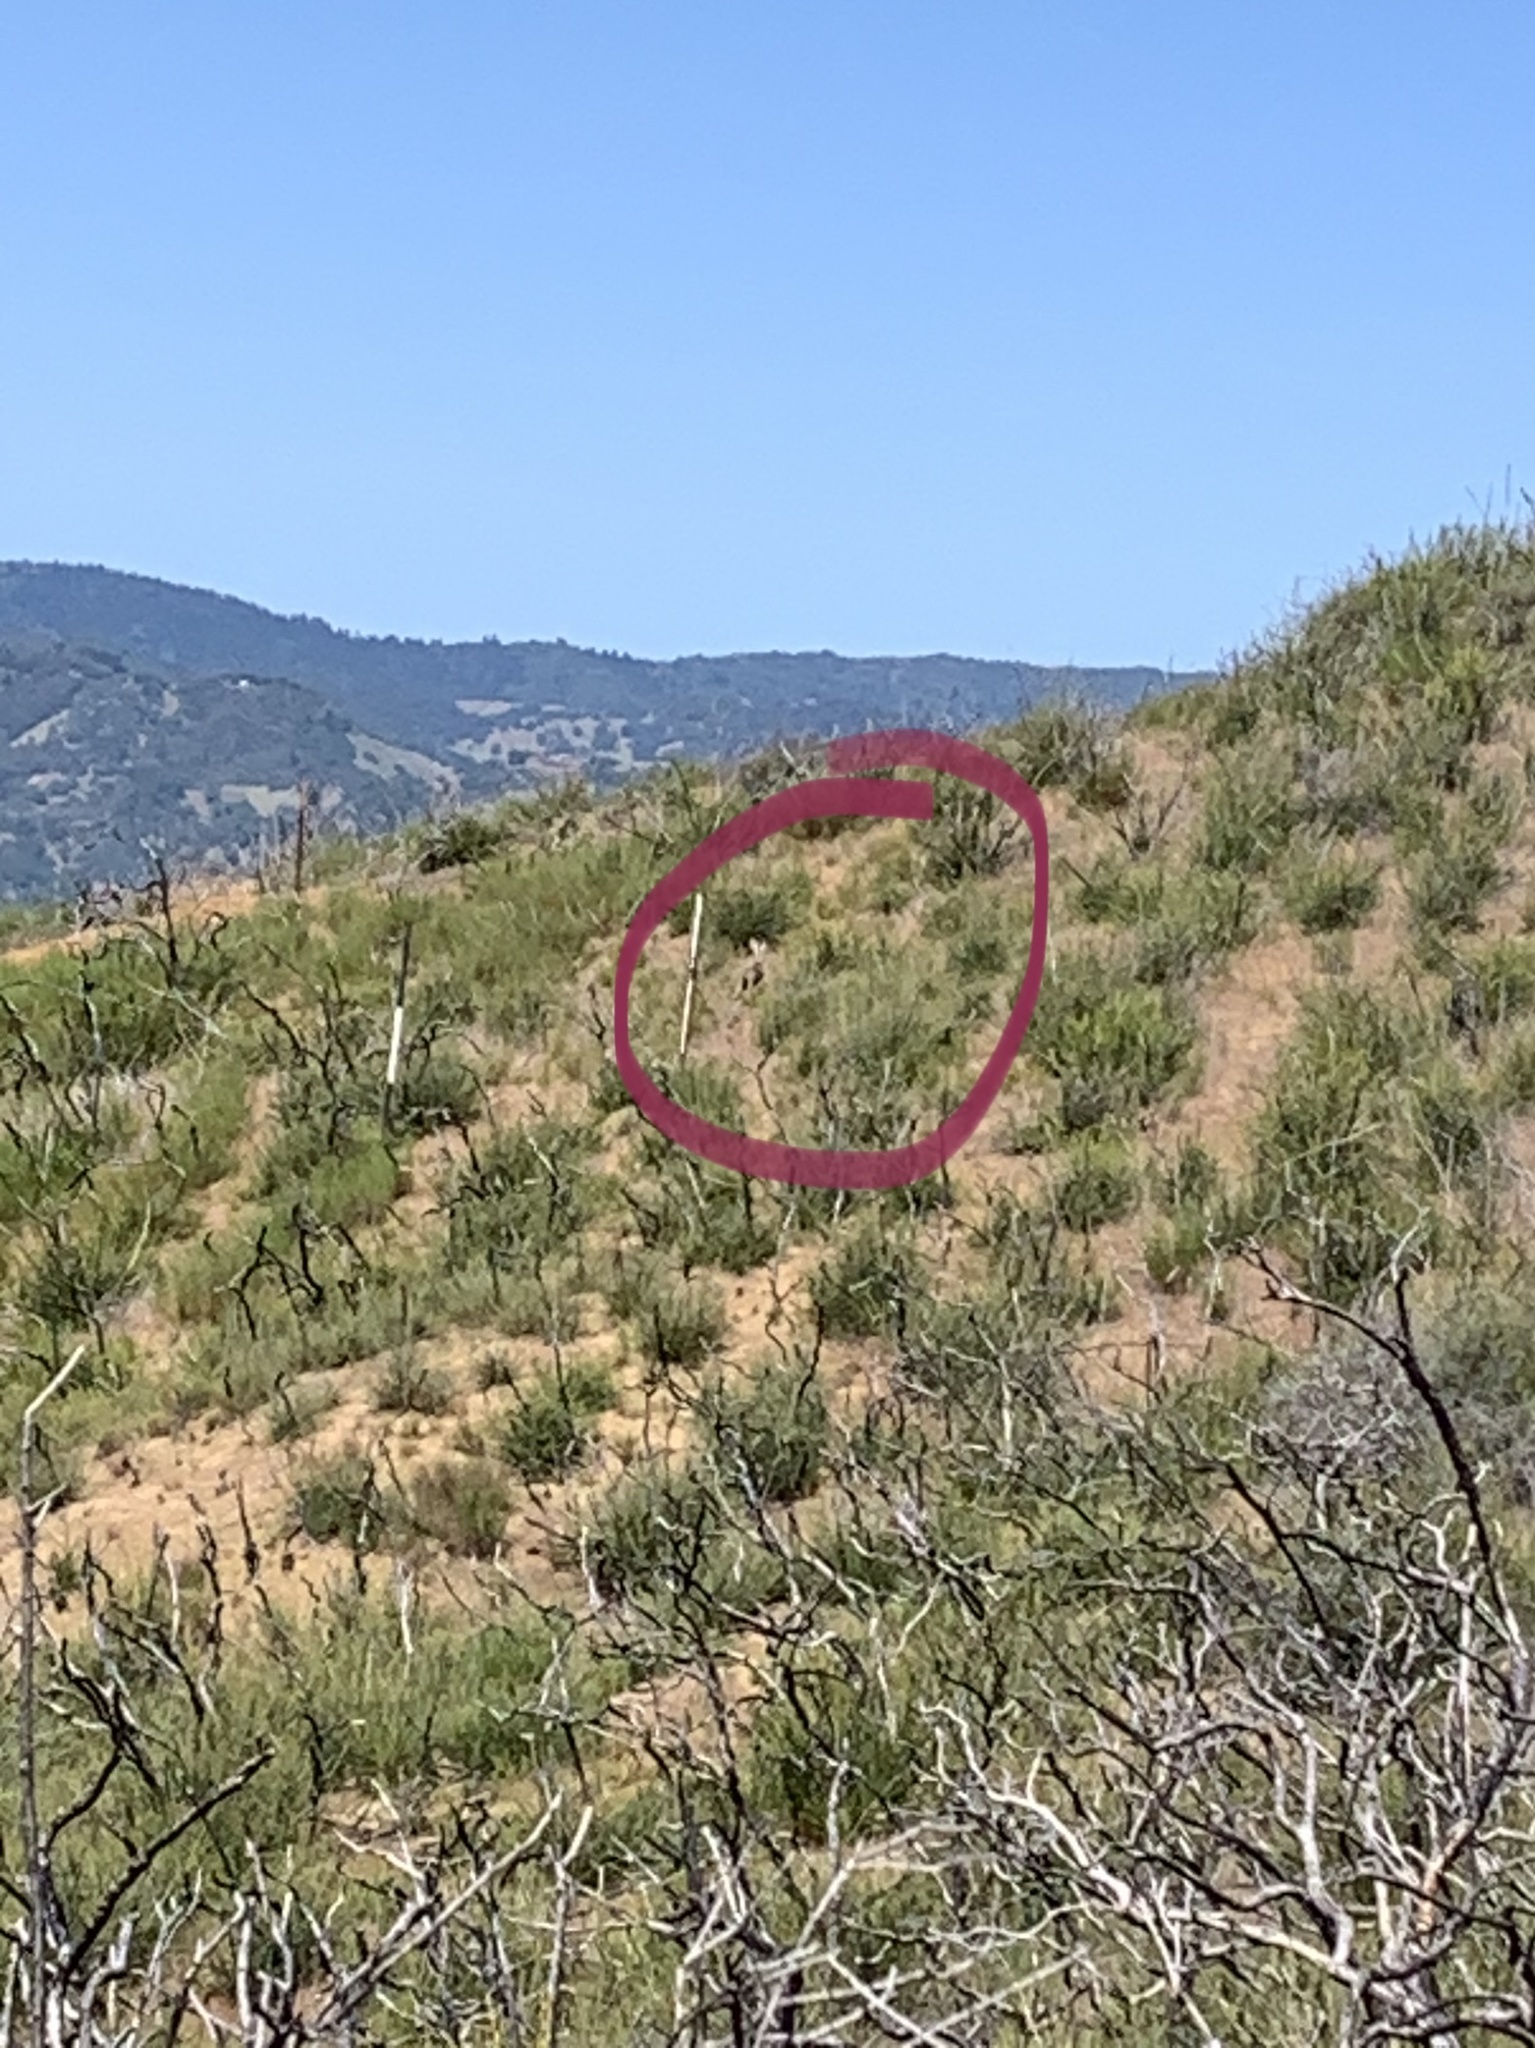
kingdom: Animalia
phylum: Chordata
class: Mammalia
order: Lagomorpha
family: Leporidae
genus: Lepus
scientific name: Lepus californicus
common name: Black-tailed jackrabbit
